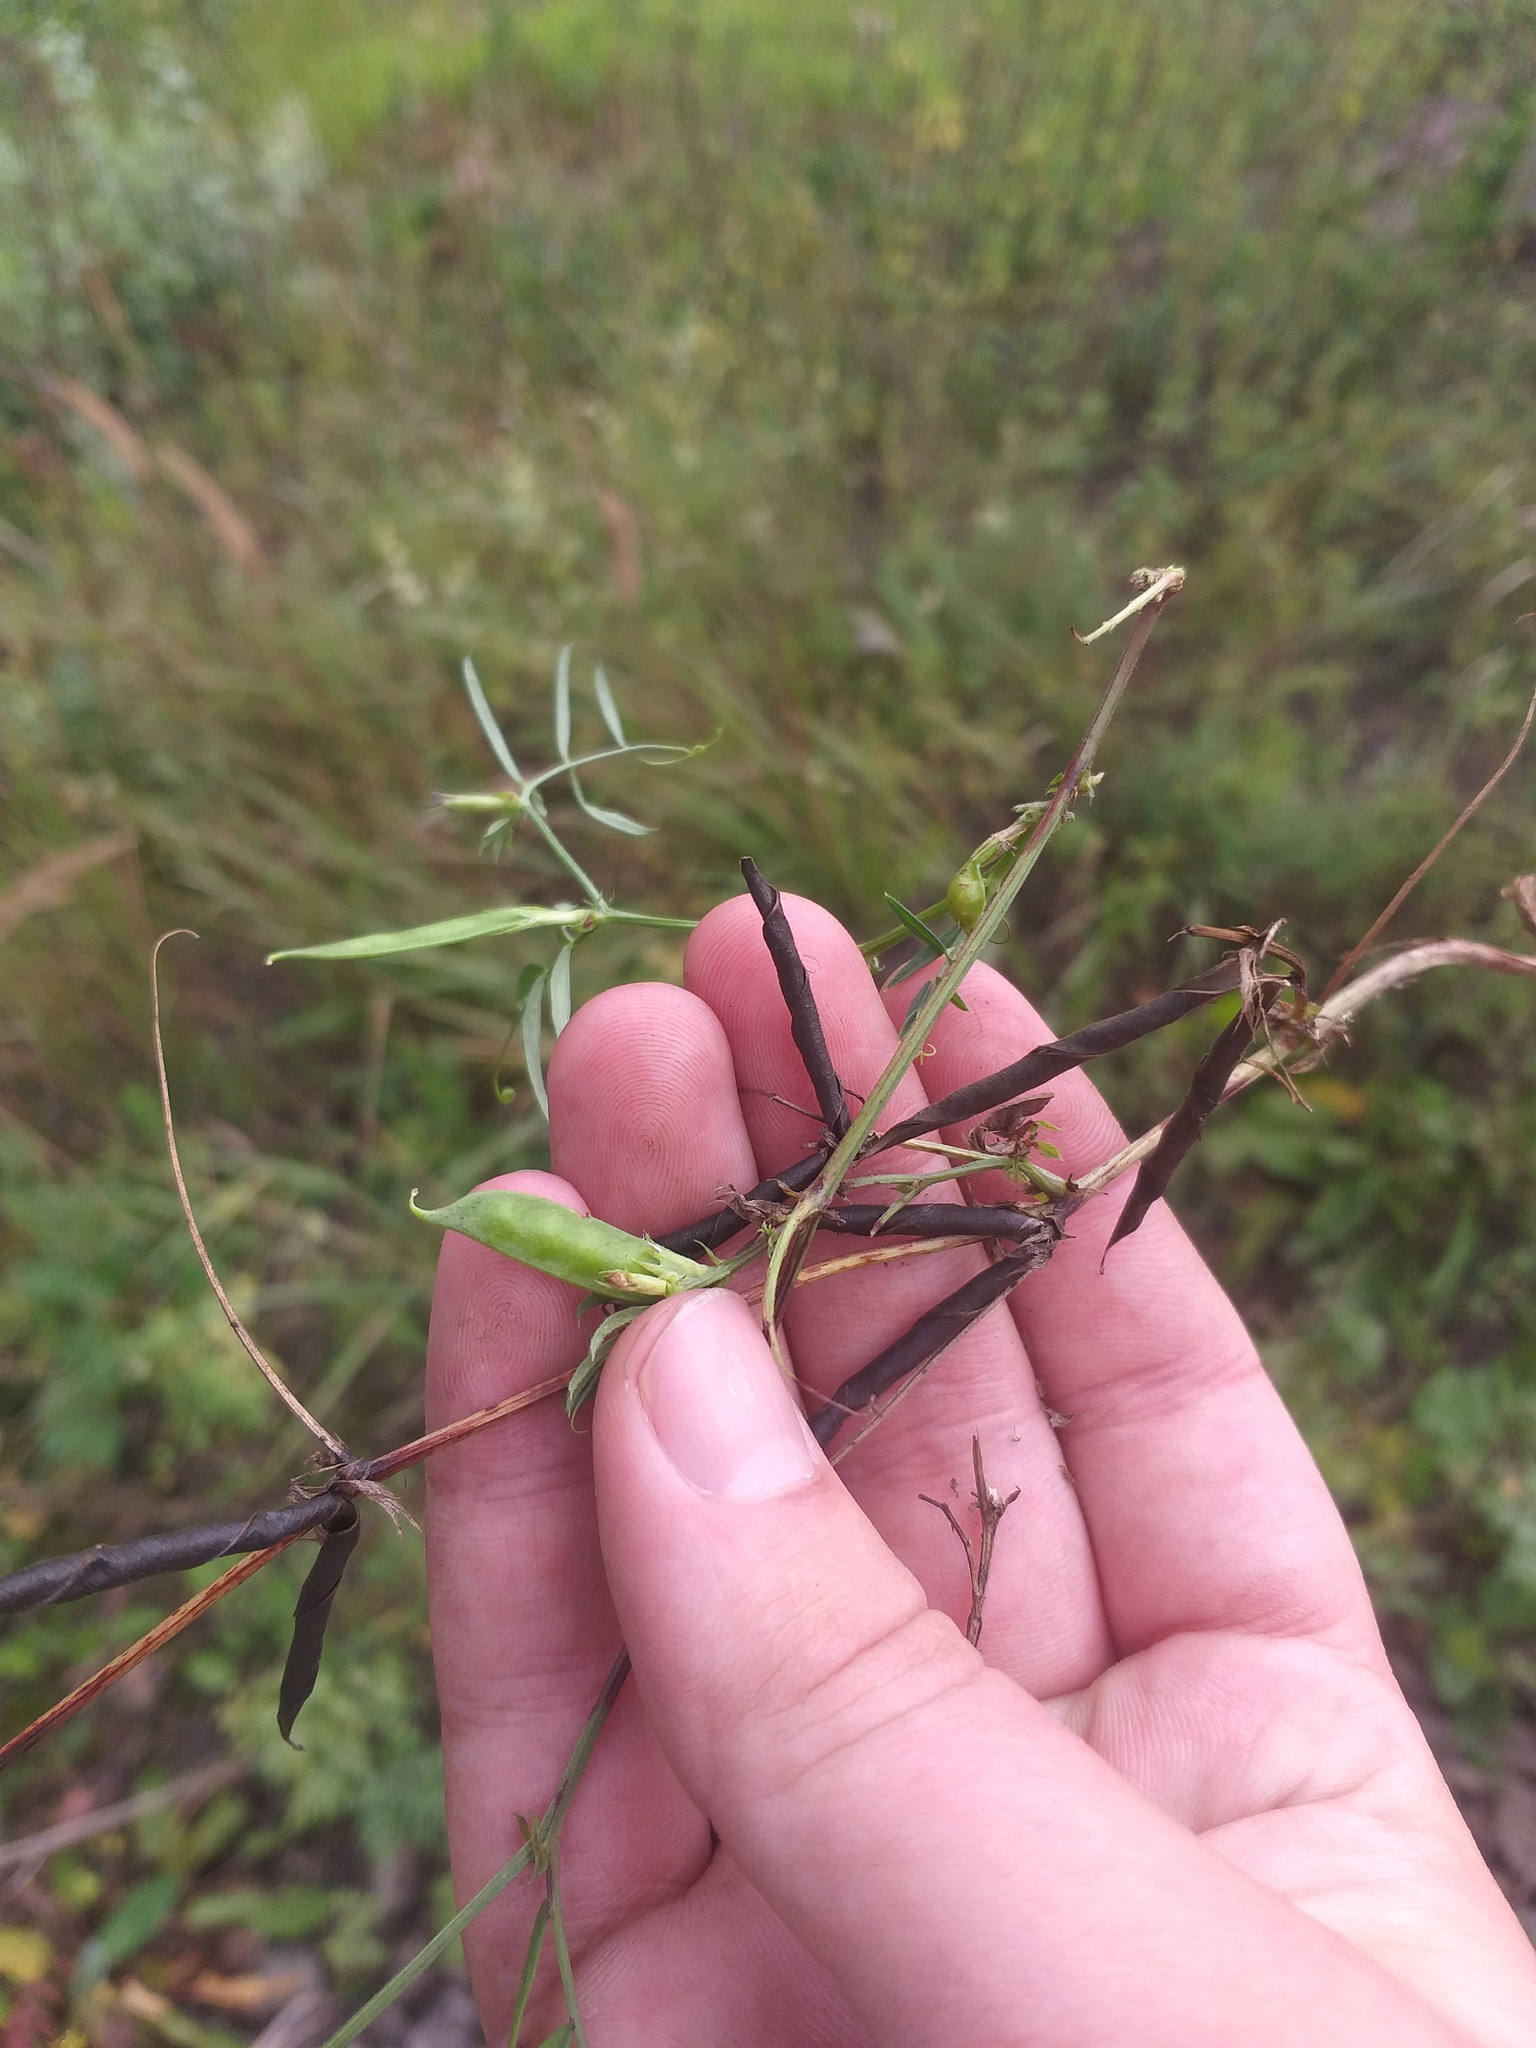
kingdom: Plantae
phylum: Tracheophyta
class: Magnoliopsida
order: Fabales
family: Fabaceae
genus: Vicia
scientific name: Vicia sativa
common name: Garden vetch
